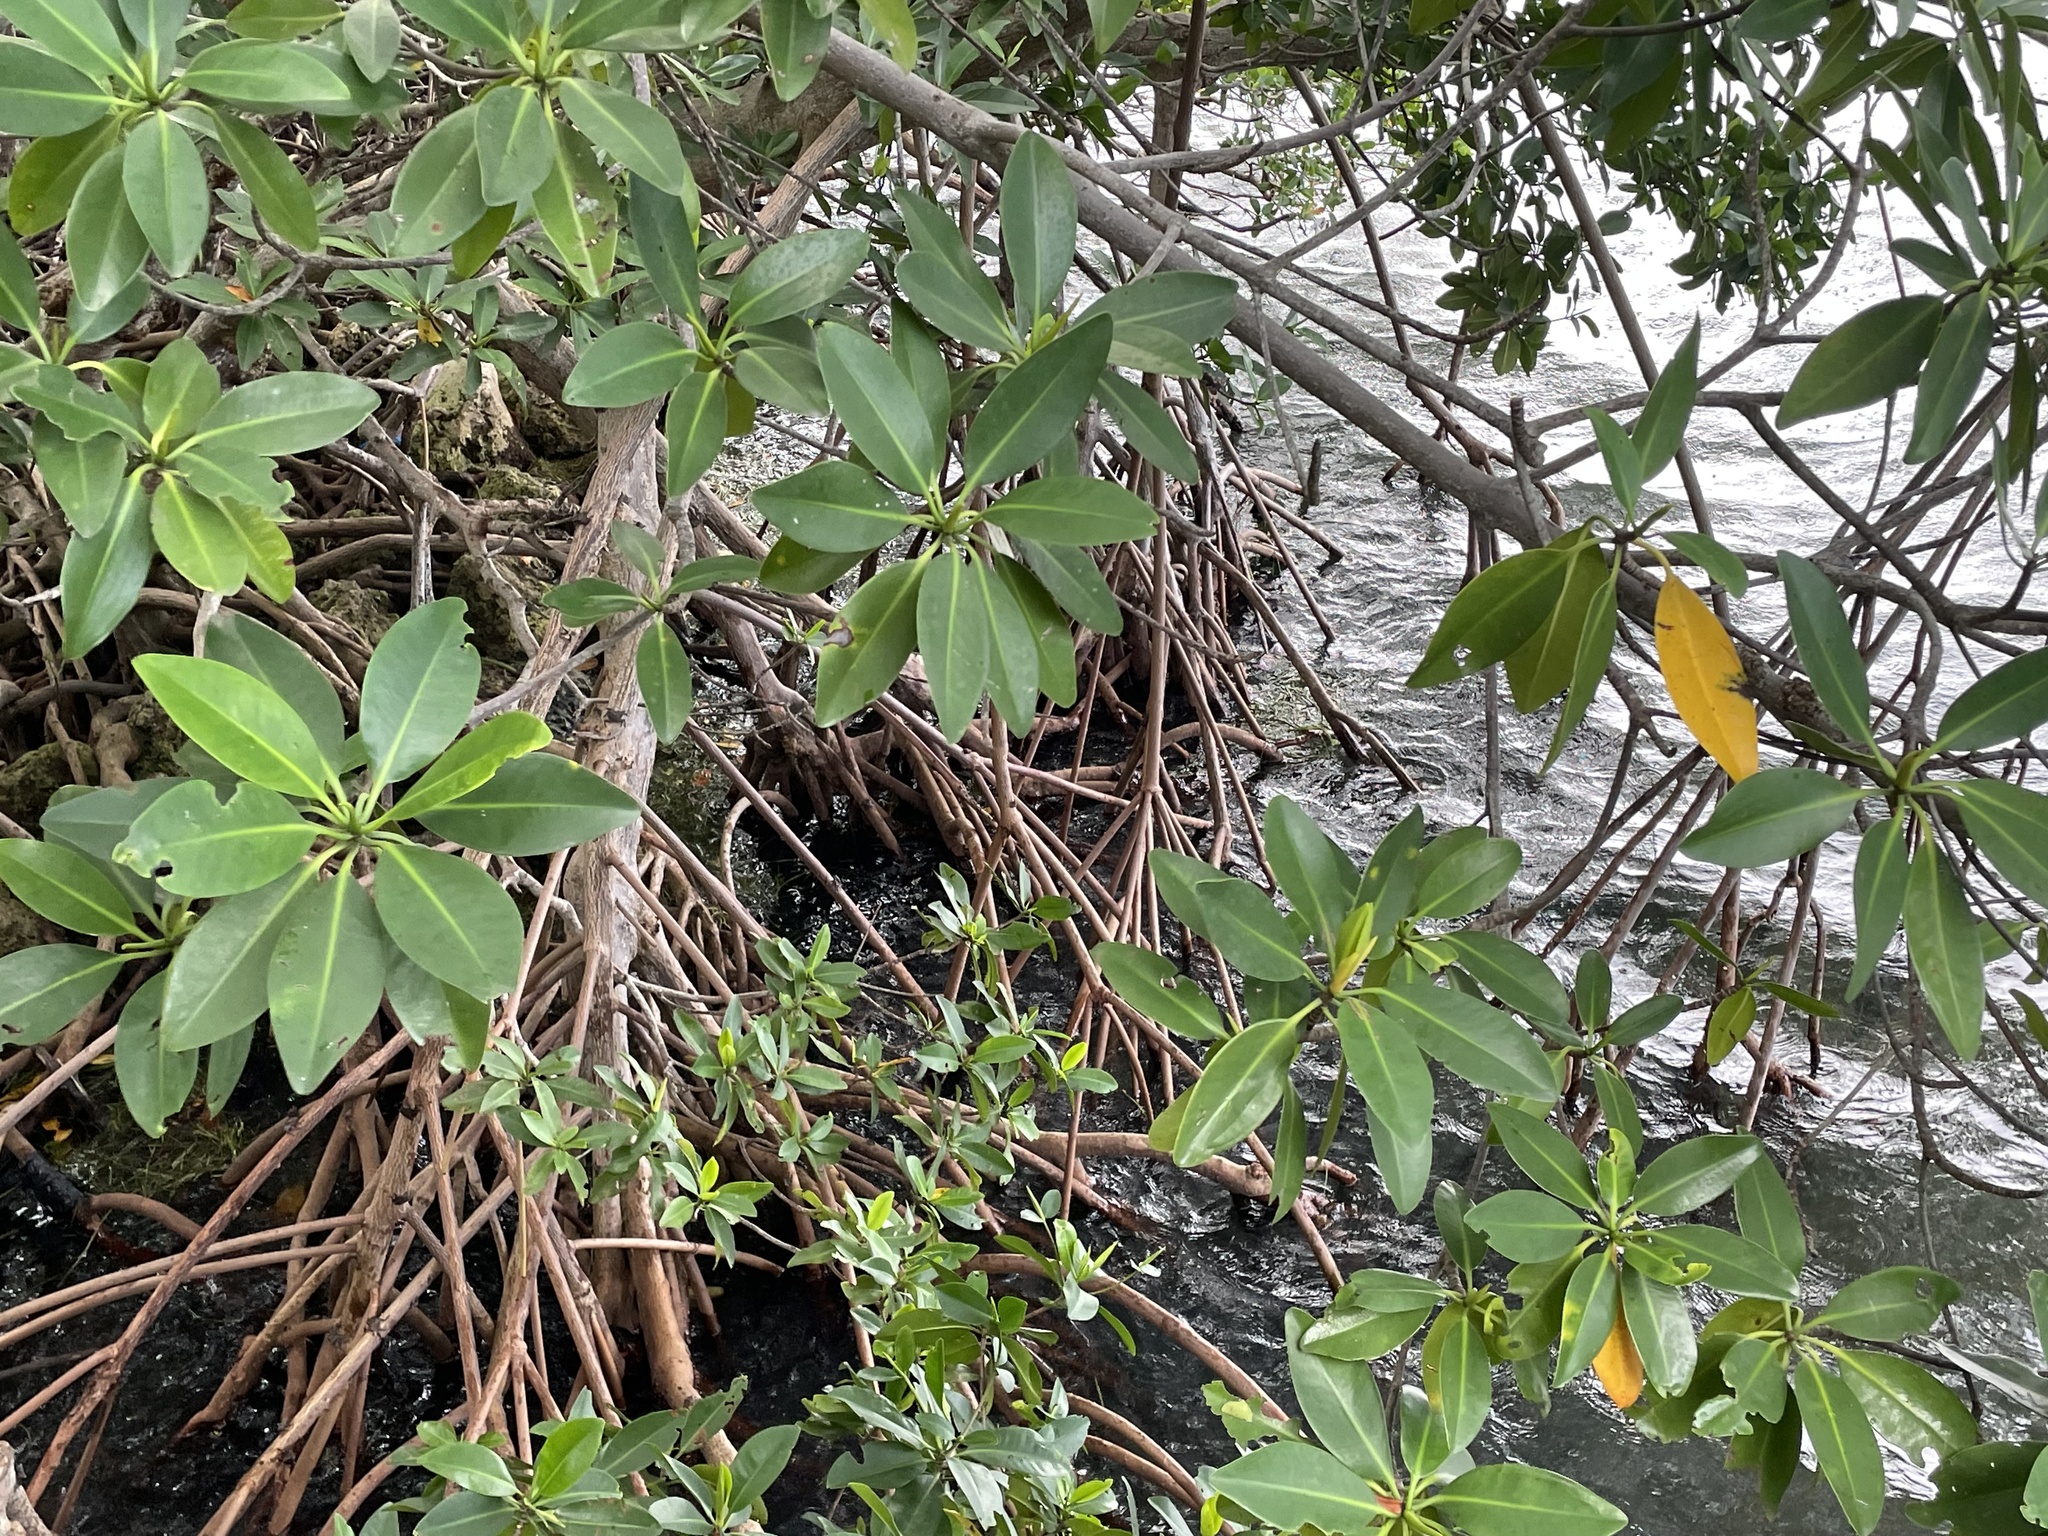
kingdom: Plantae
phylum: Tracheophyta
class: Magnoliopsida
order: Malpighiales
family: Rhizophoraceae
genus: Rhizophora
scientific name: Rhizophora mangle
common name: Red mangrove
